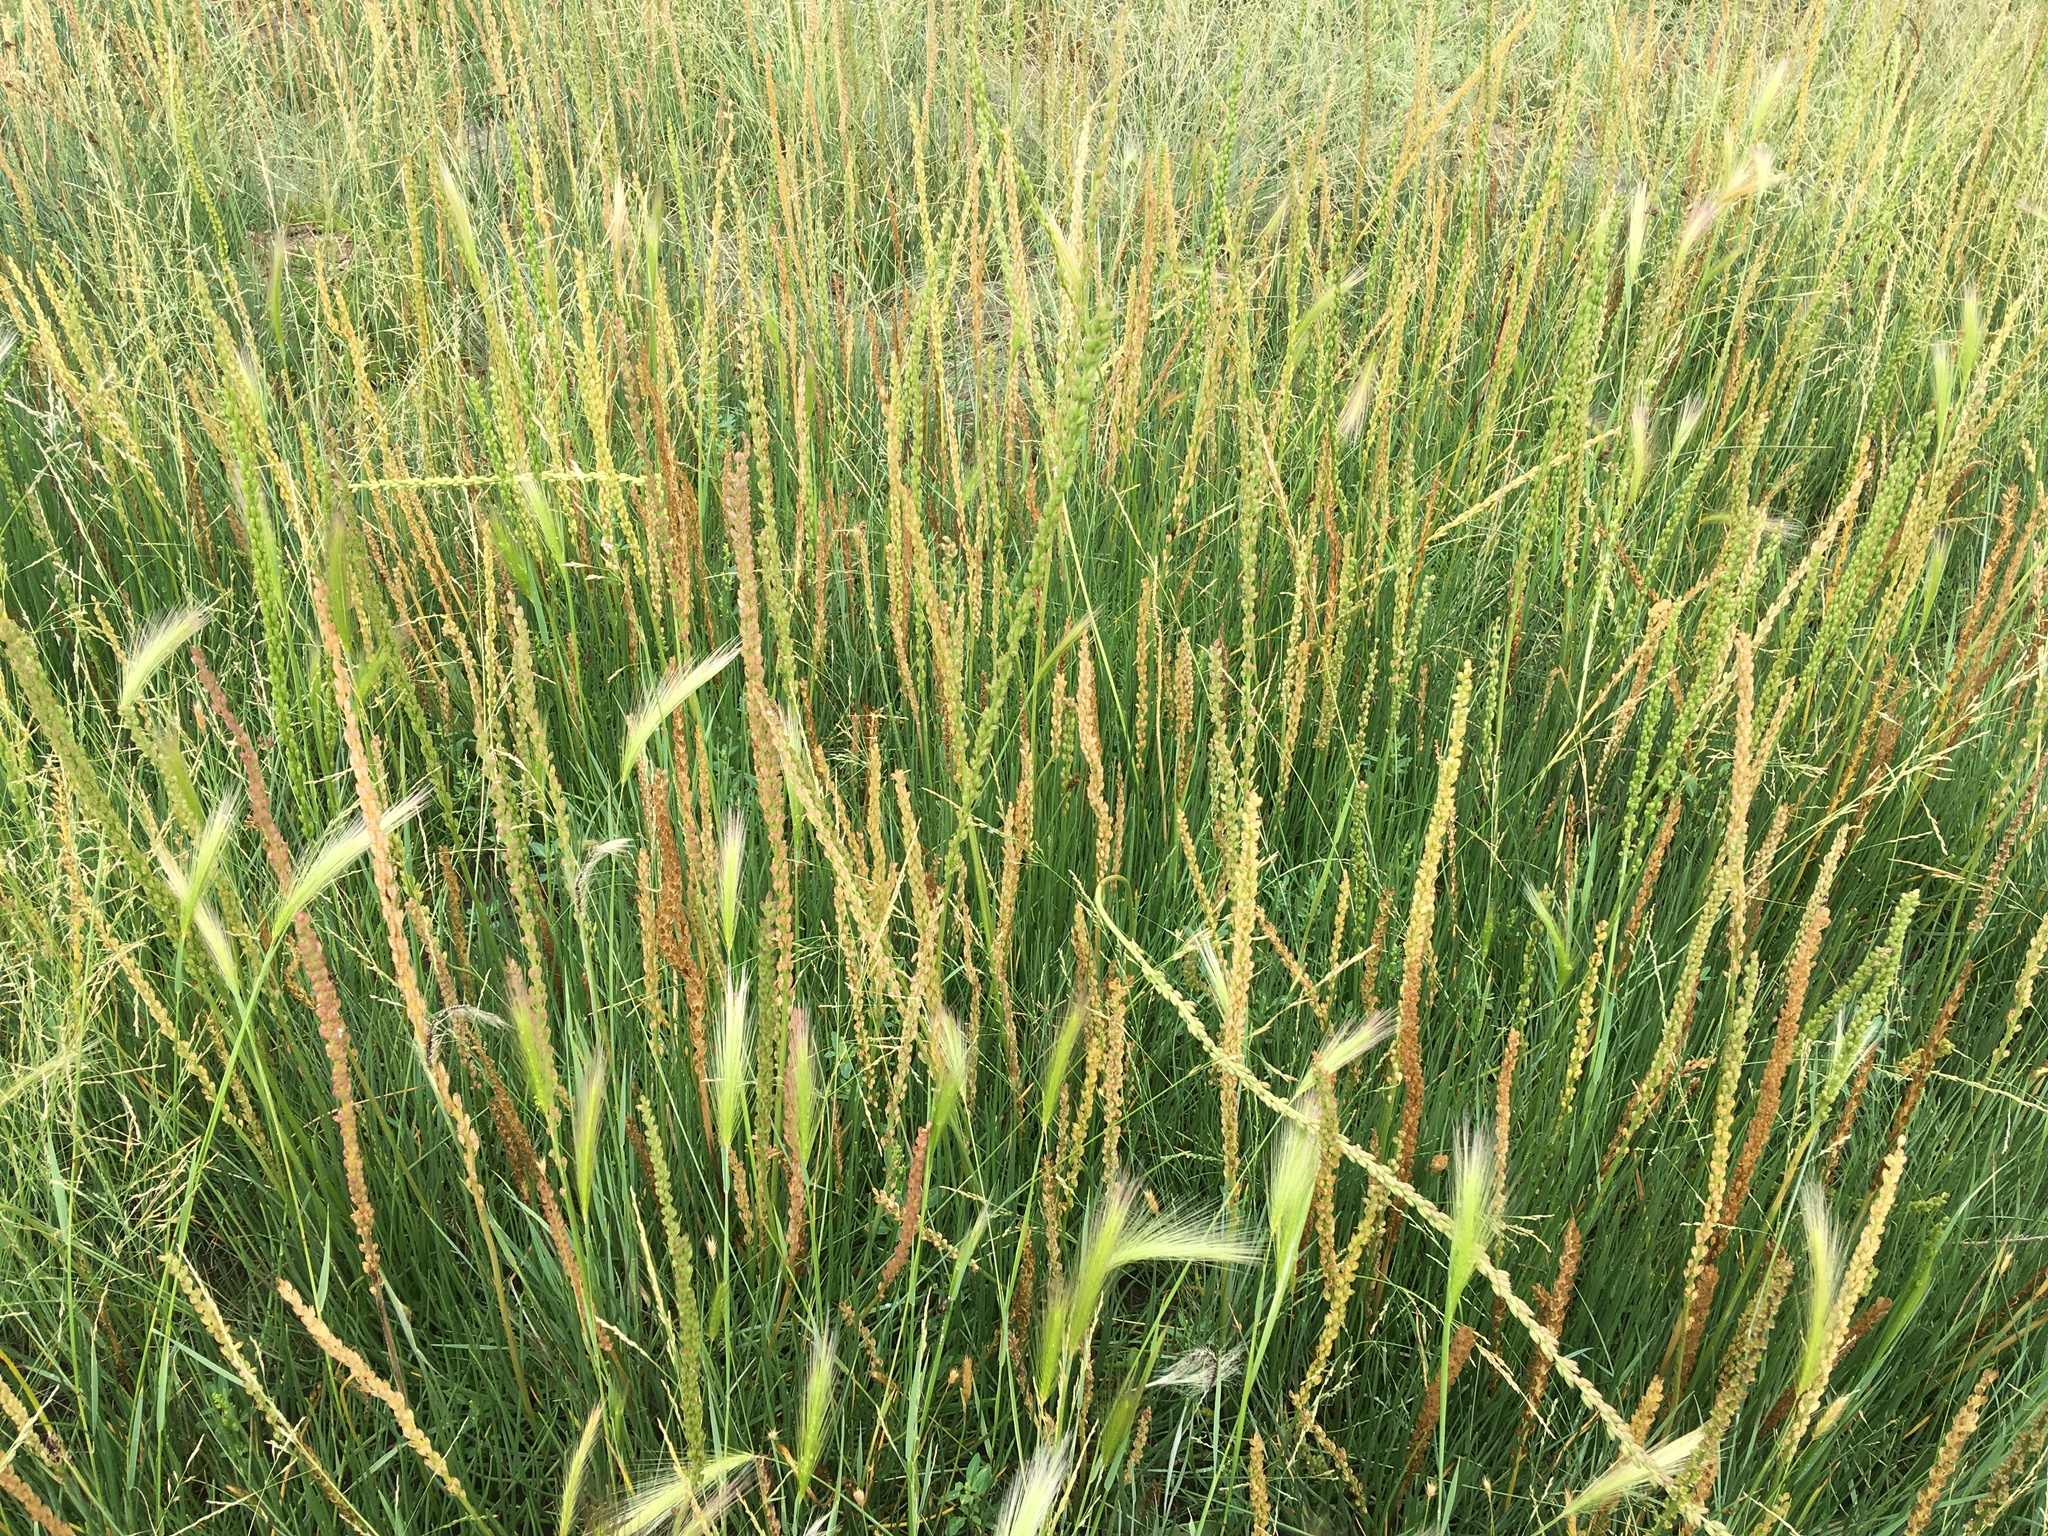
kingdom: Plantae
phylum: Tracheophyta
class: Liliopsida
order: Alismatales
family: Juncaginaceae
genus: Triglochin
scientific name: Triglochin maritima
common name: Sea arrowgrass
